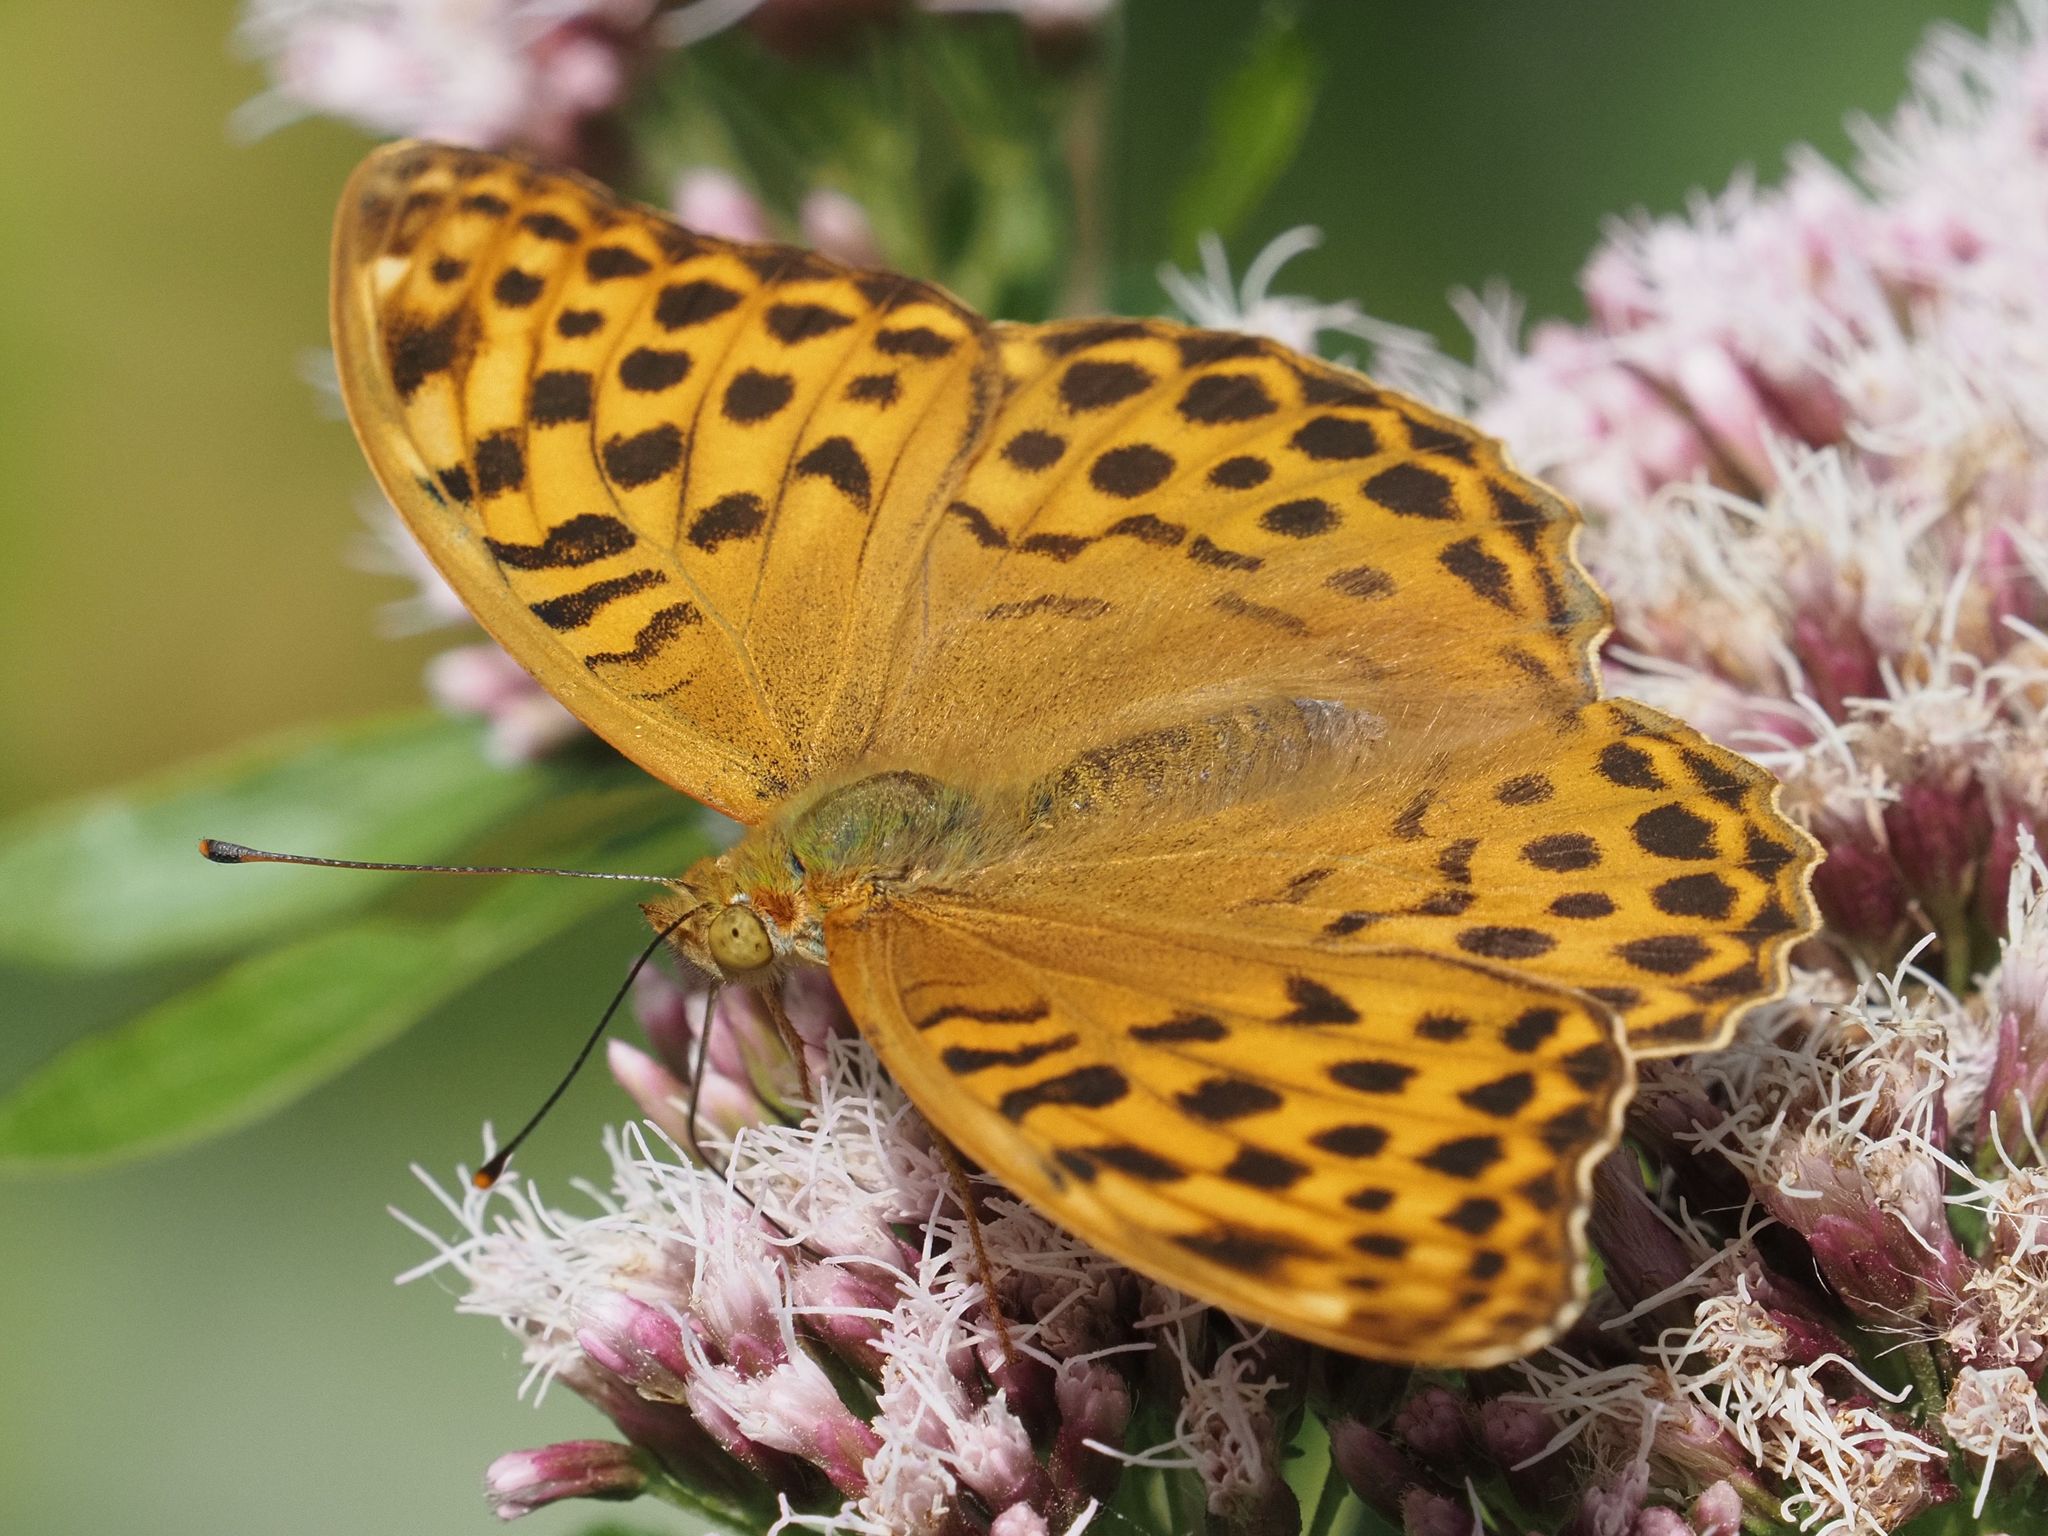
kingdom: Animalia
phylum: Arthropoda
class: Insecta
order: Lepidoptera
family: Nymphalidae
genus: Argynnis
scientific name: Argynnis paphia
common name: Silver-washed fritillary
